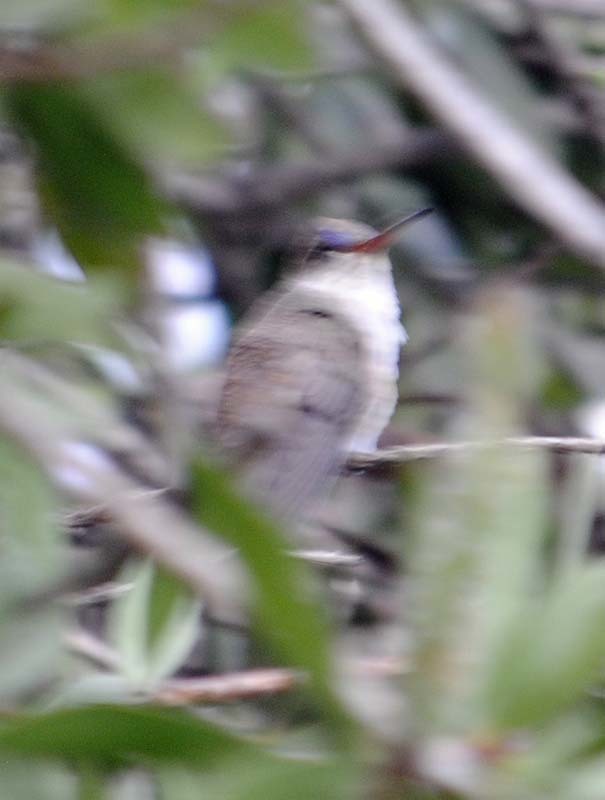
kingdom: Animalia
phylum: Chordata
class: Aves
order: Apodiformes
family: Trochilidae
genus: Leucolia
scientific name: Leucolia violiceps
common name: Violet-crowned hummingbird
